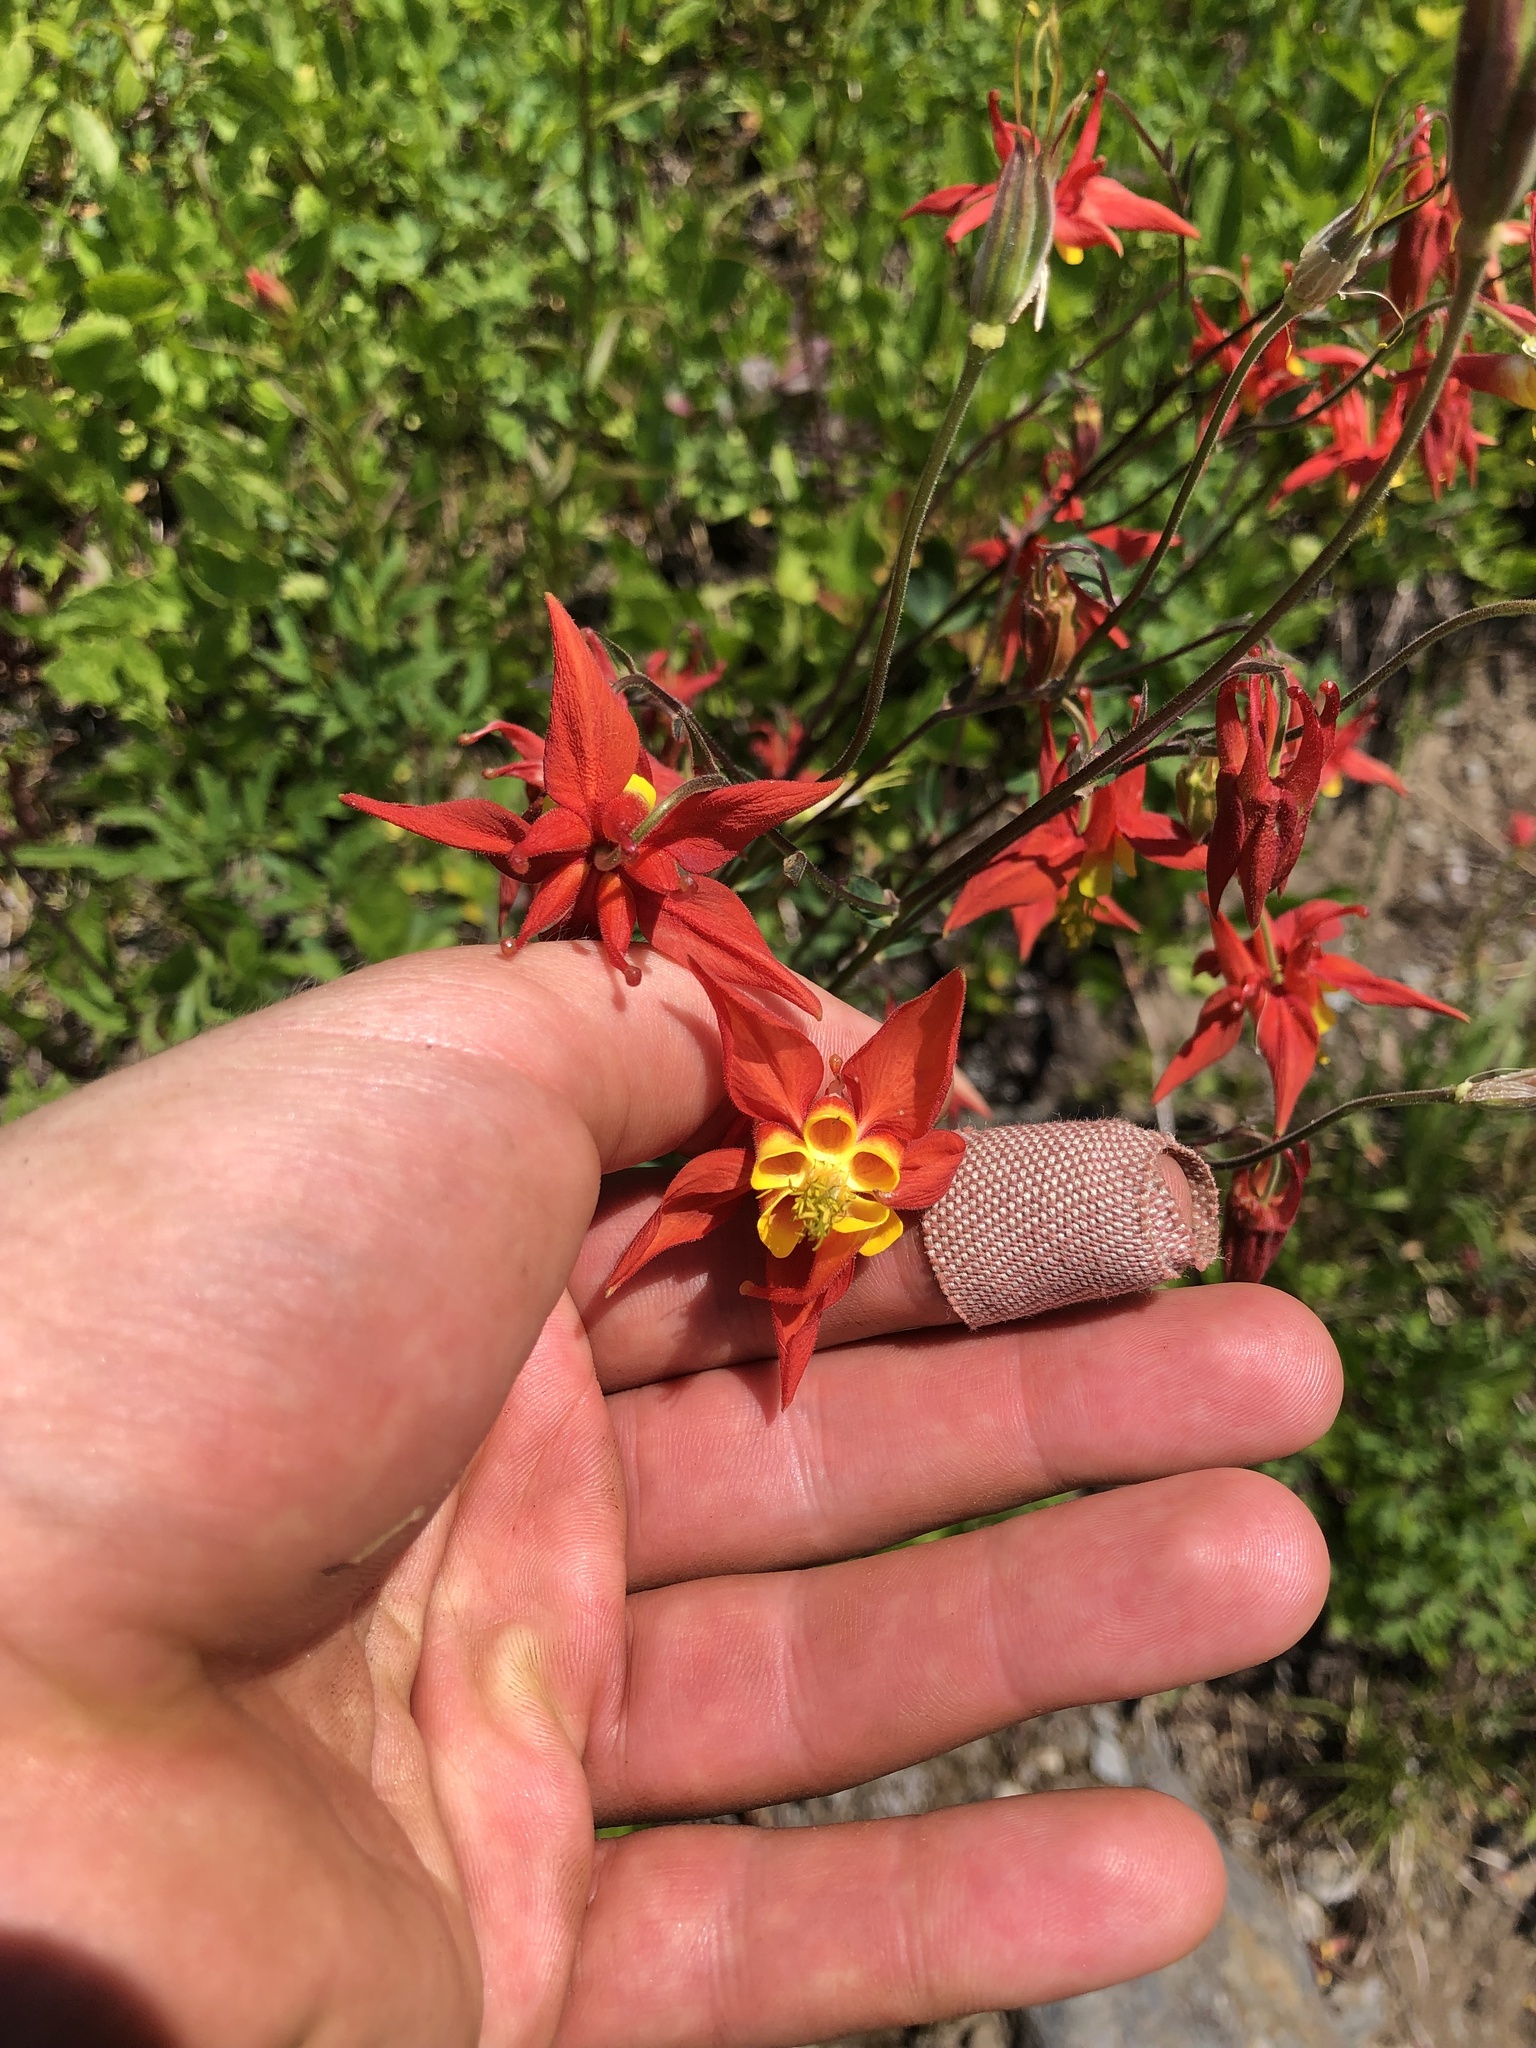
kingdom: Plantae
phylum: Tracheophyta
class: Magnoliopsida
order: Ranunculales
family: Ranunculaceae
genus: Aquilegia
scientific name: Aquilegia formosa
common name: Sitka columbine
